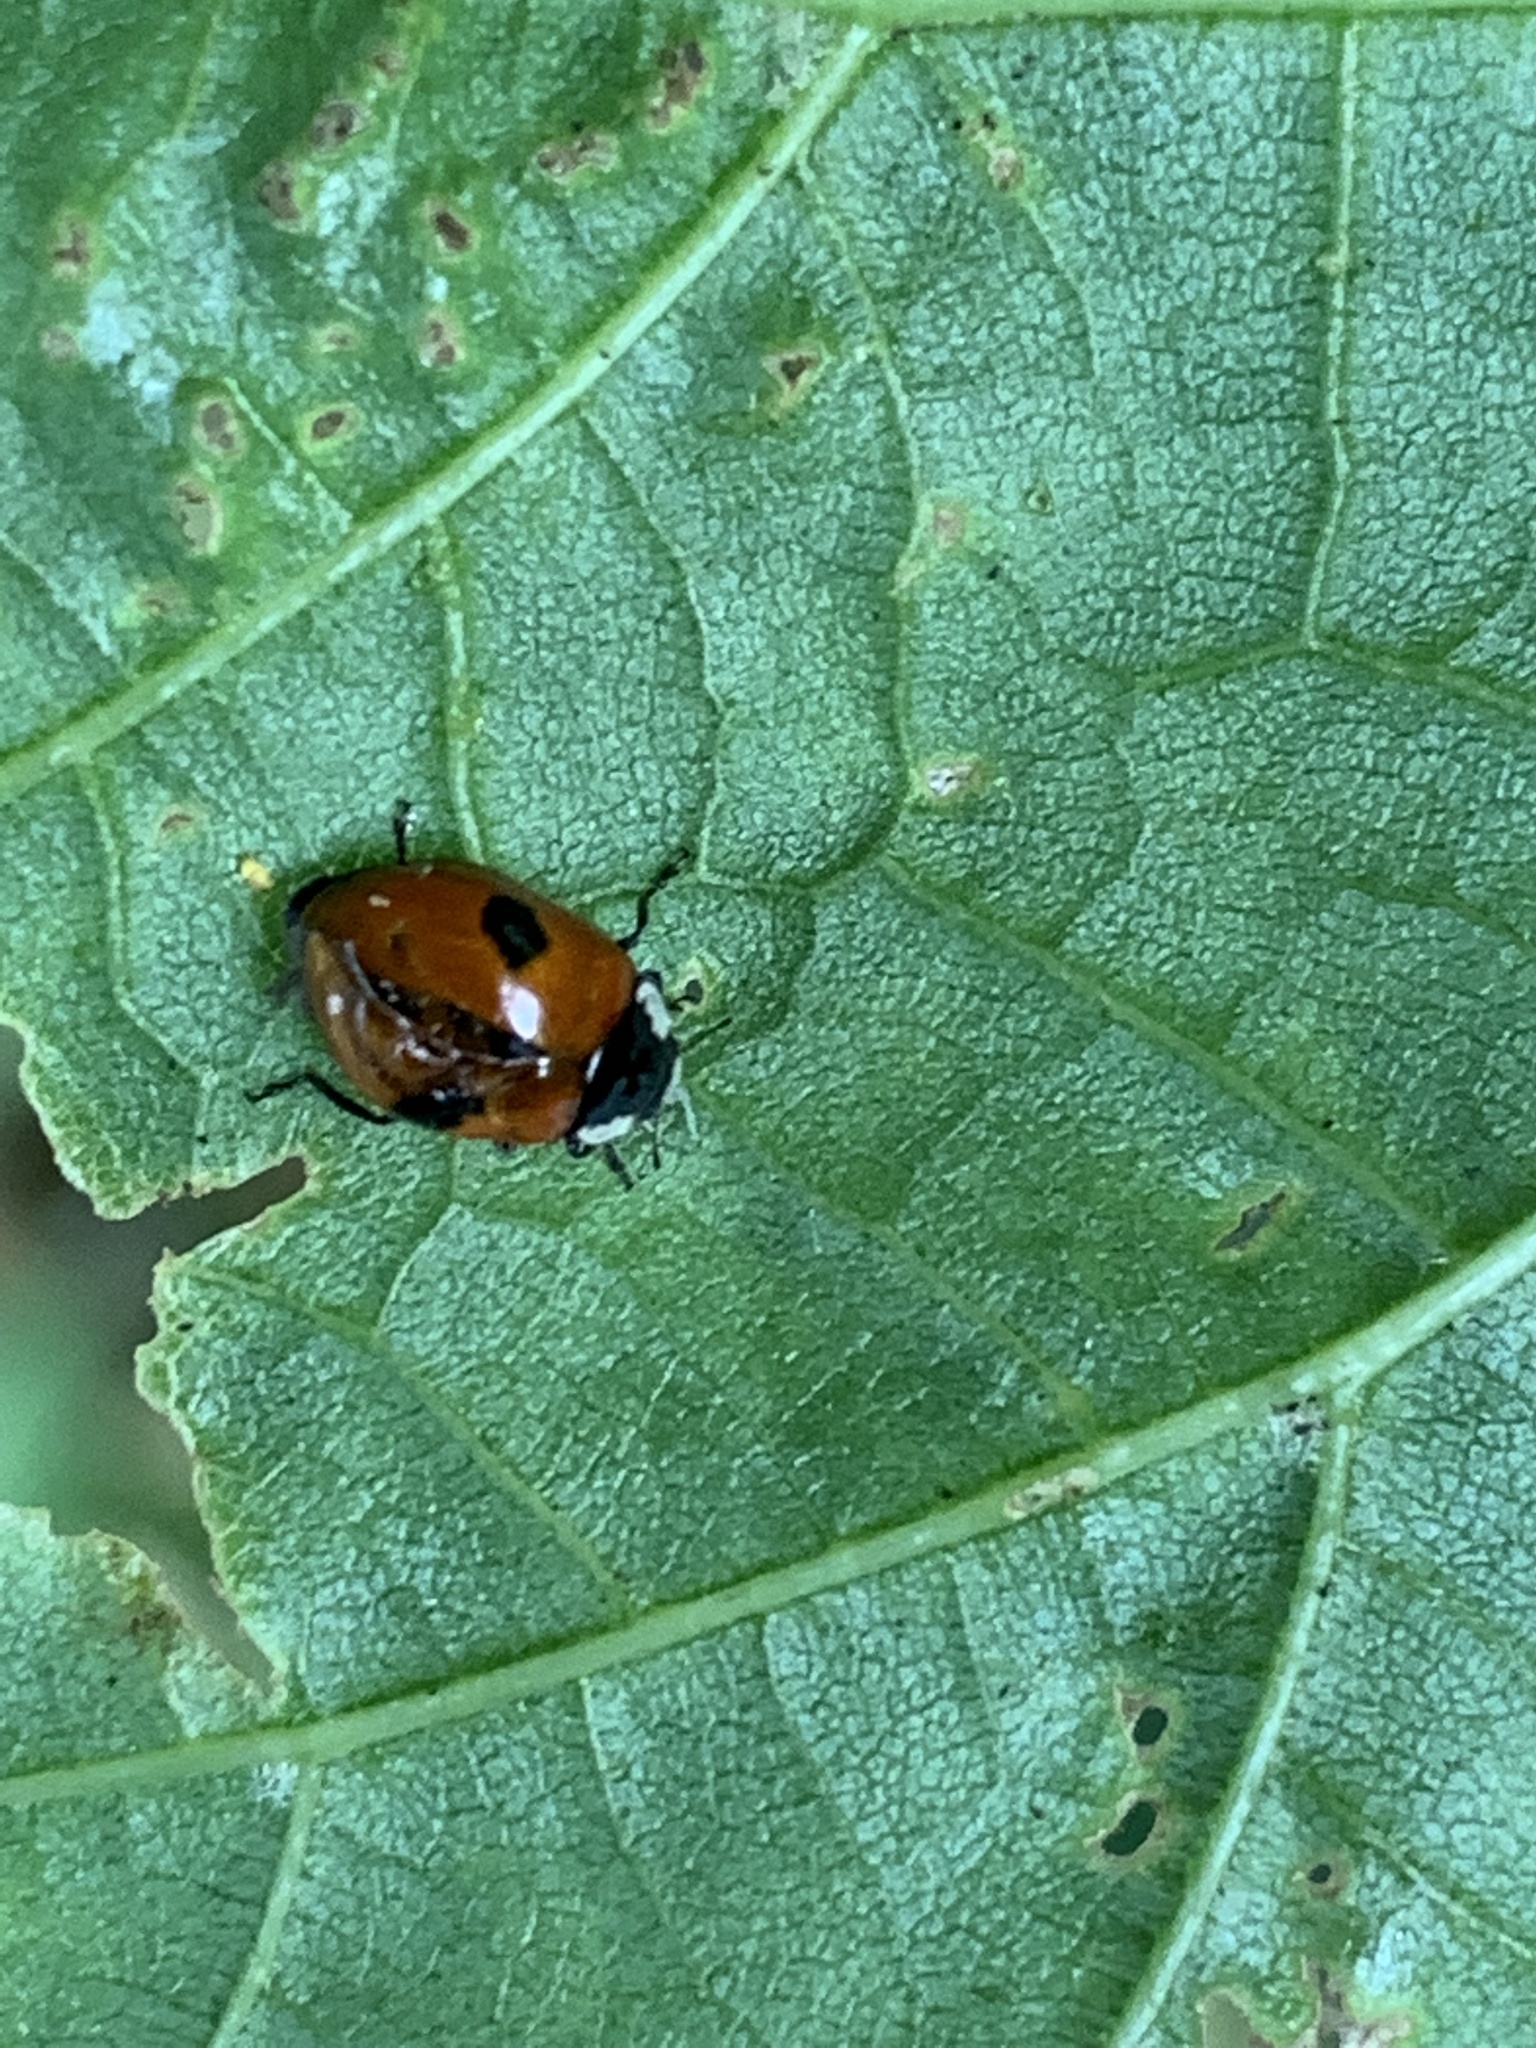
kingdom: Animalia
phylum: Arthropoda
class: Insecta
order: Coleoptera
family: Coccinellidae
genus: Adalia
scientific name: Adalia bipunctata
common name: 2-spot ladybird
